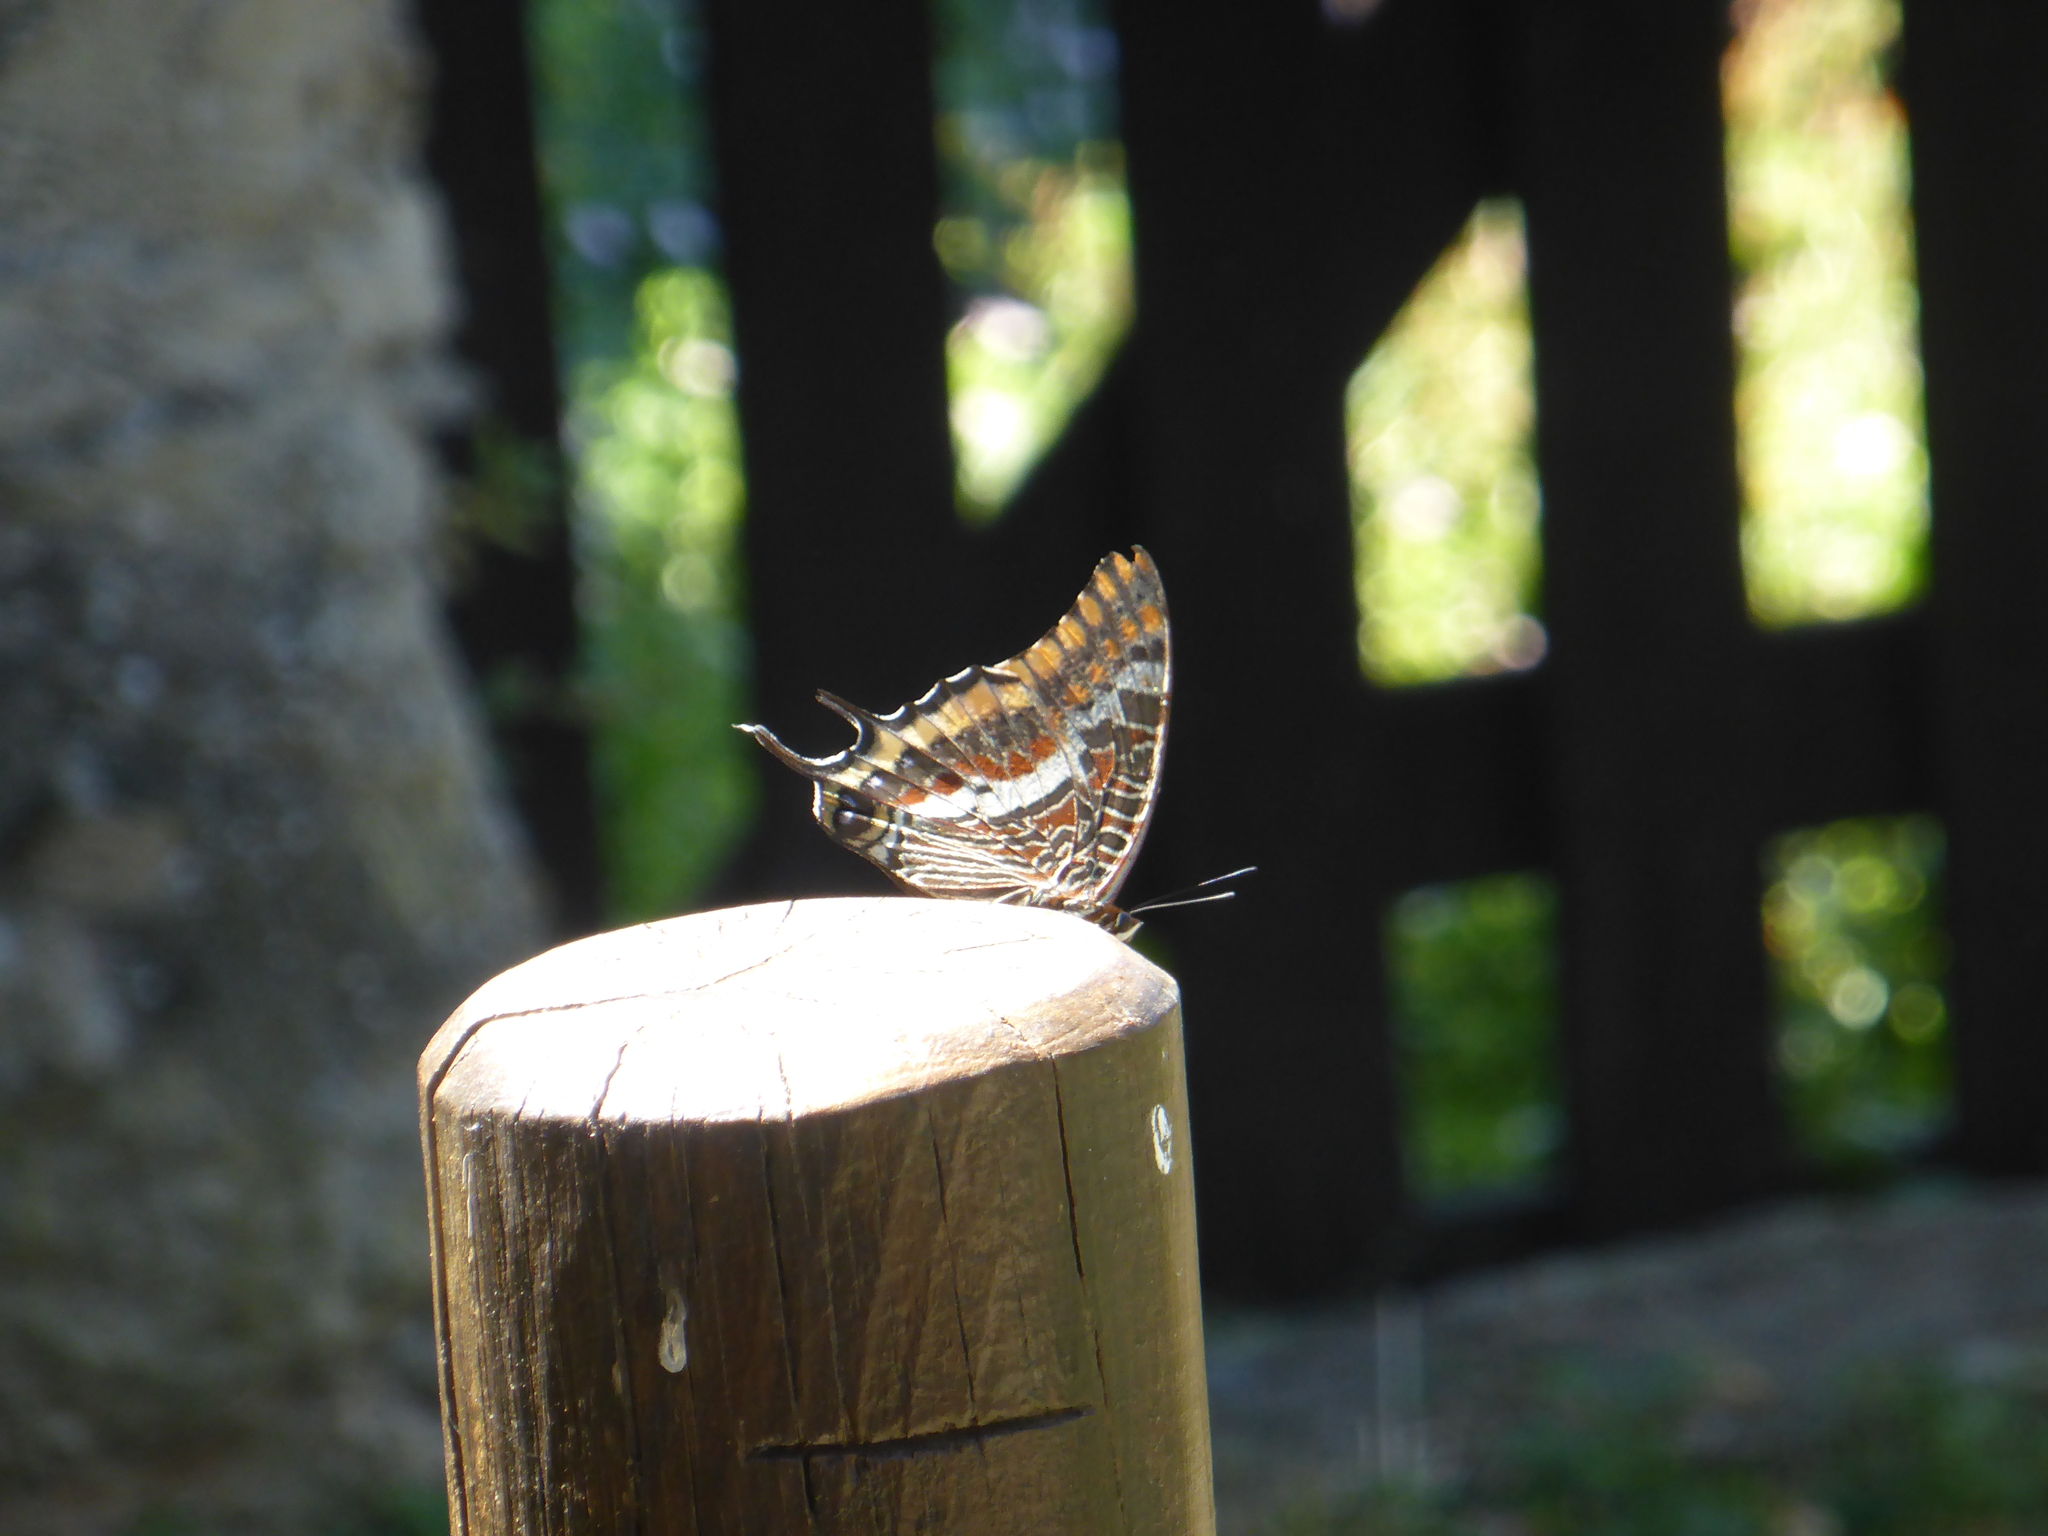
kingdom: Animalia
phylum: Arthropoda
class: Insecta
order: Lepidoptera
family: Nymphalidae
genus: Charaxes
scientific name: Charaxes jasius
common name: Two tailed pasha
